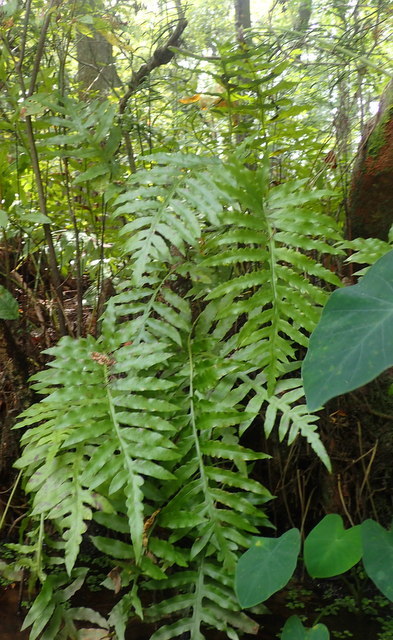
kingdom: Plantae
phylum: Tracheophyta
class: Polypodiopsida
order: Polypodiales
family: Blechnaceae
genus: Lorinseria
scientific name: Lorinseria areolata
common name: Dwarf chain fern
